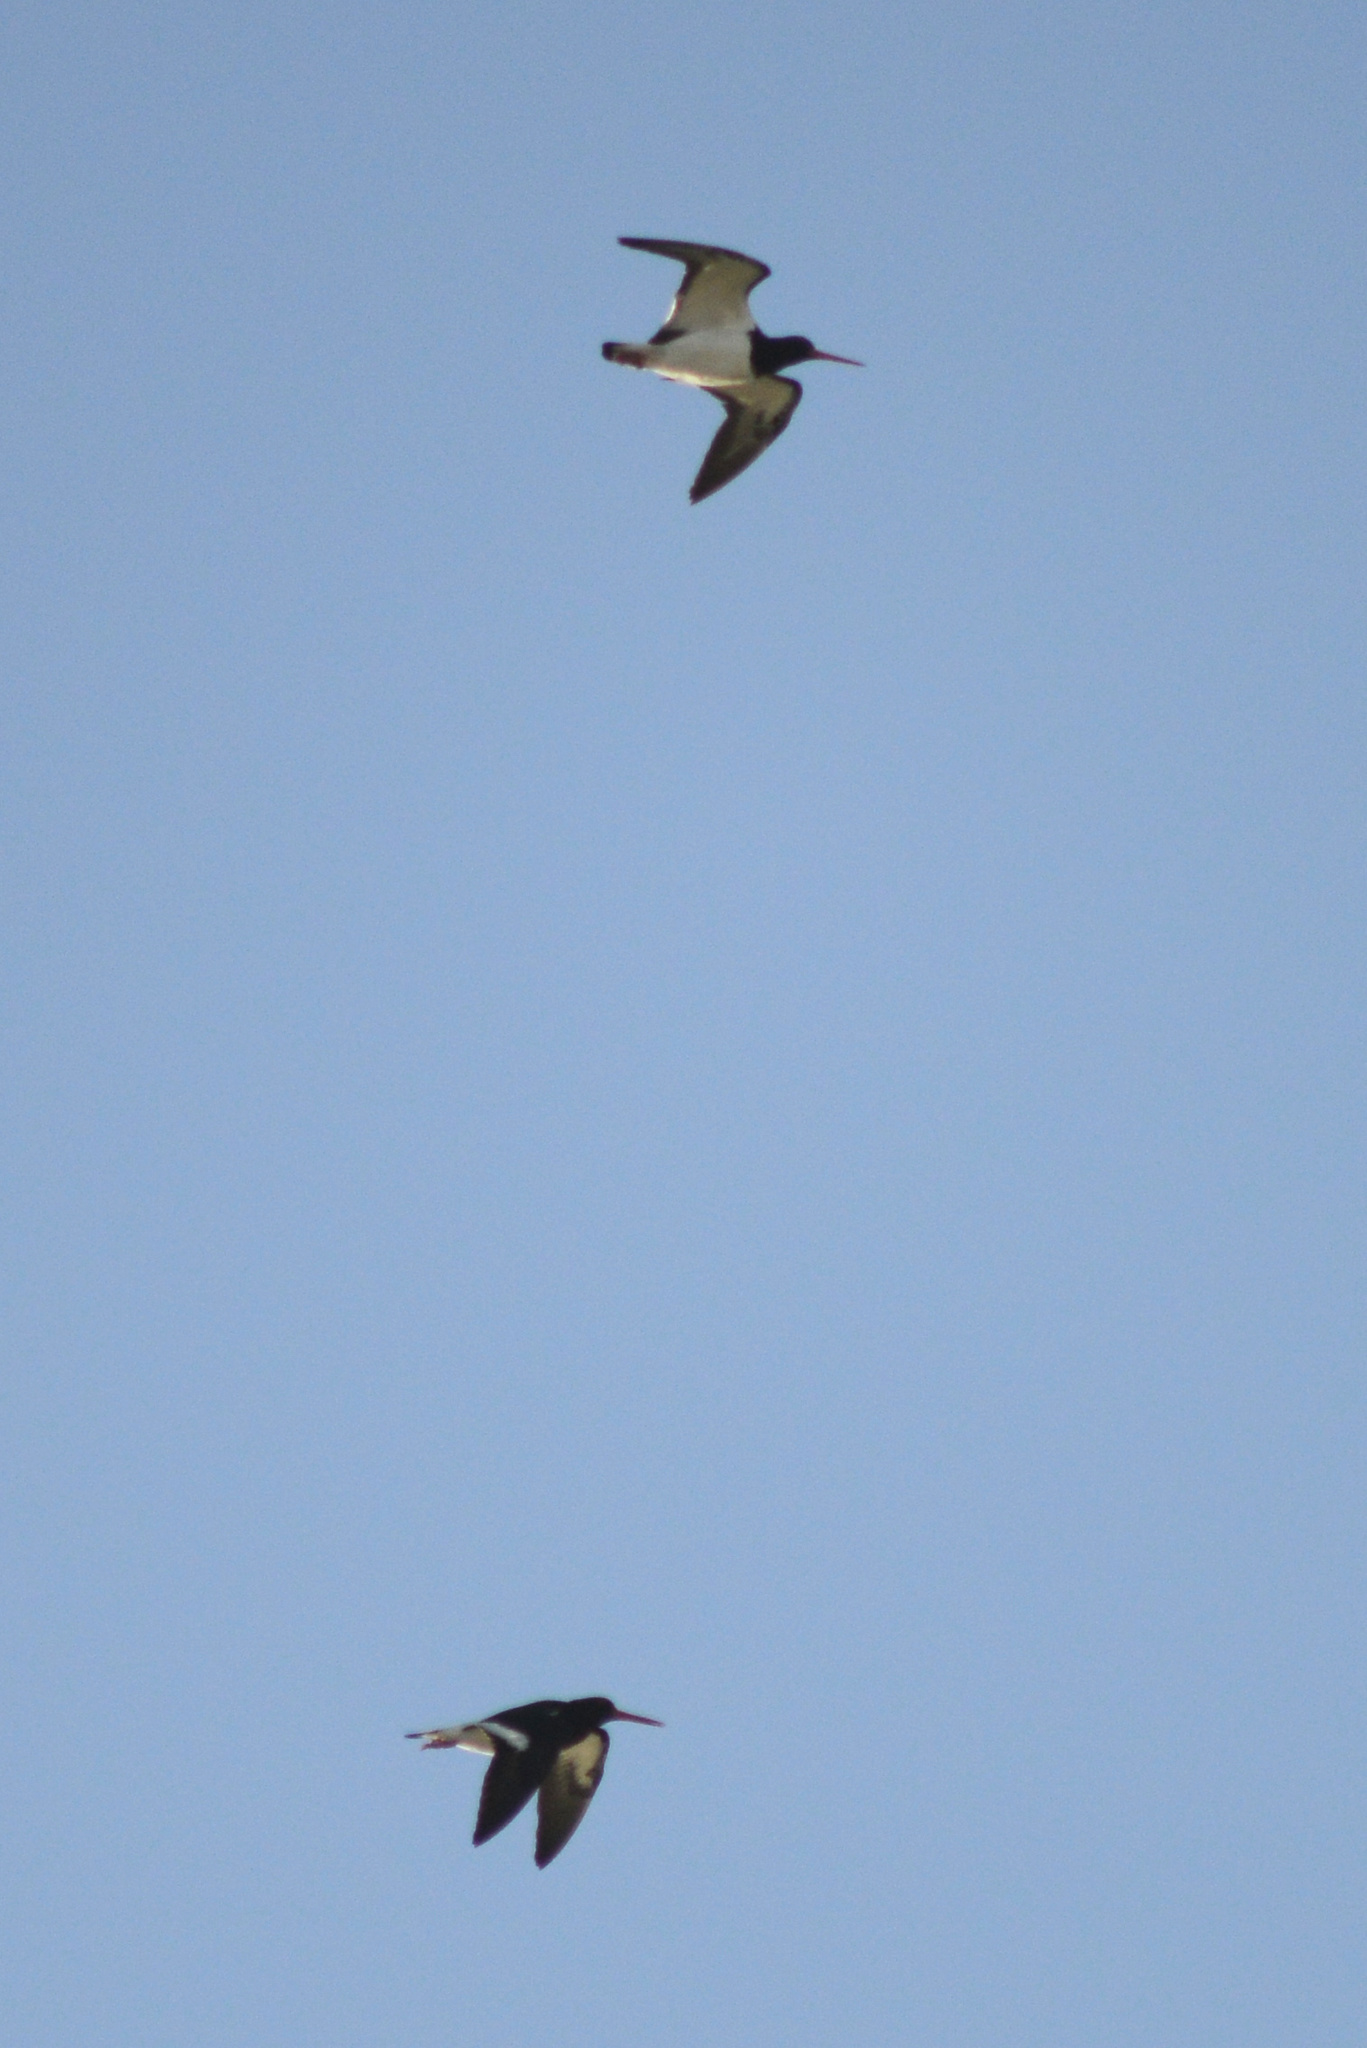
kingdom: Animalia
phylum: Chordata
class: Aves
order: Charadriiformes
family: Haematopodidae
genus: Haematopus
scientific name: Haematopus finschi
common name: South island oystercatcher
